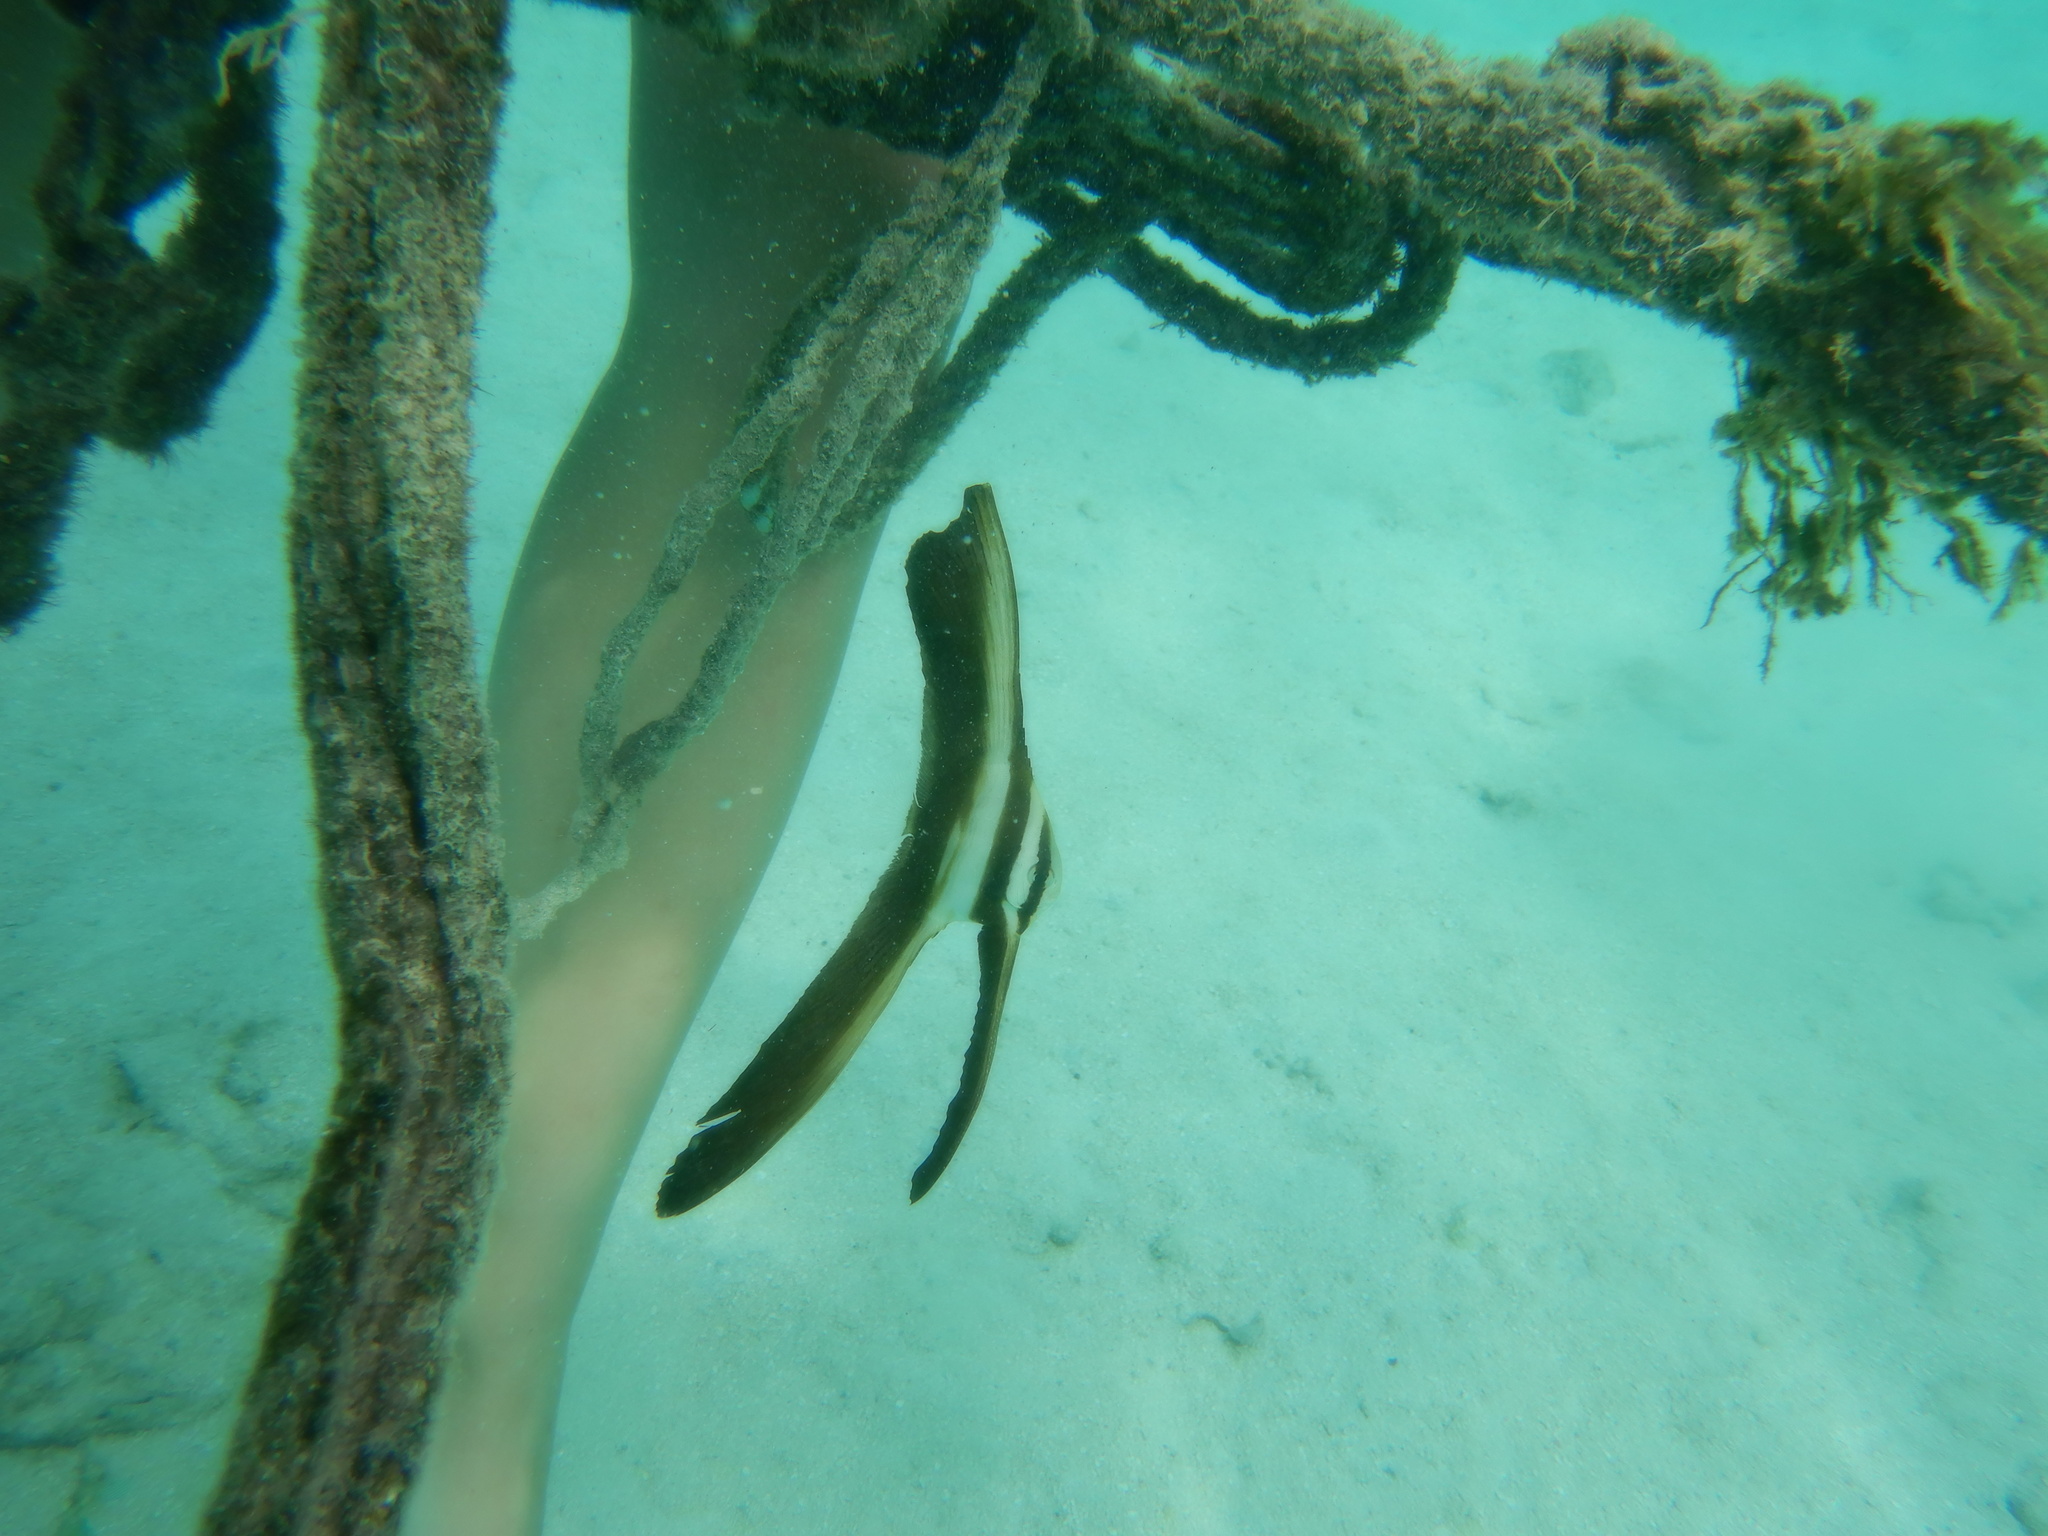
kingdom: Animalia
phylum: Chordata
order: Perciformes
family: Ephippidae
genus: Platax
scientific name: Platax teira
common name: Longfin baitfish
